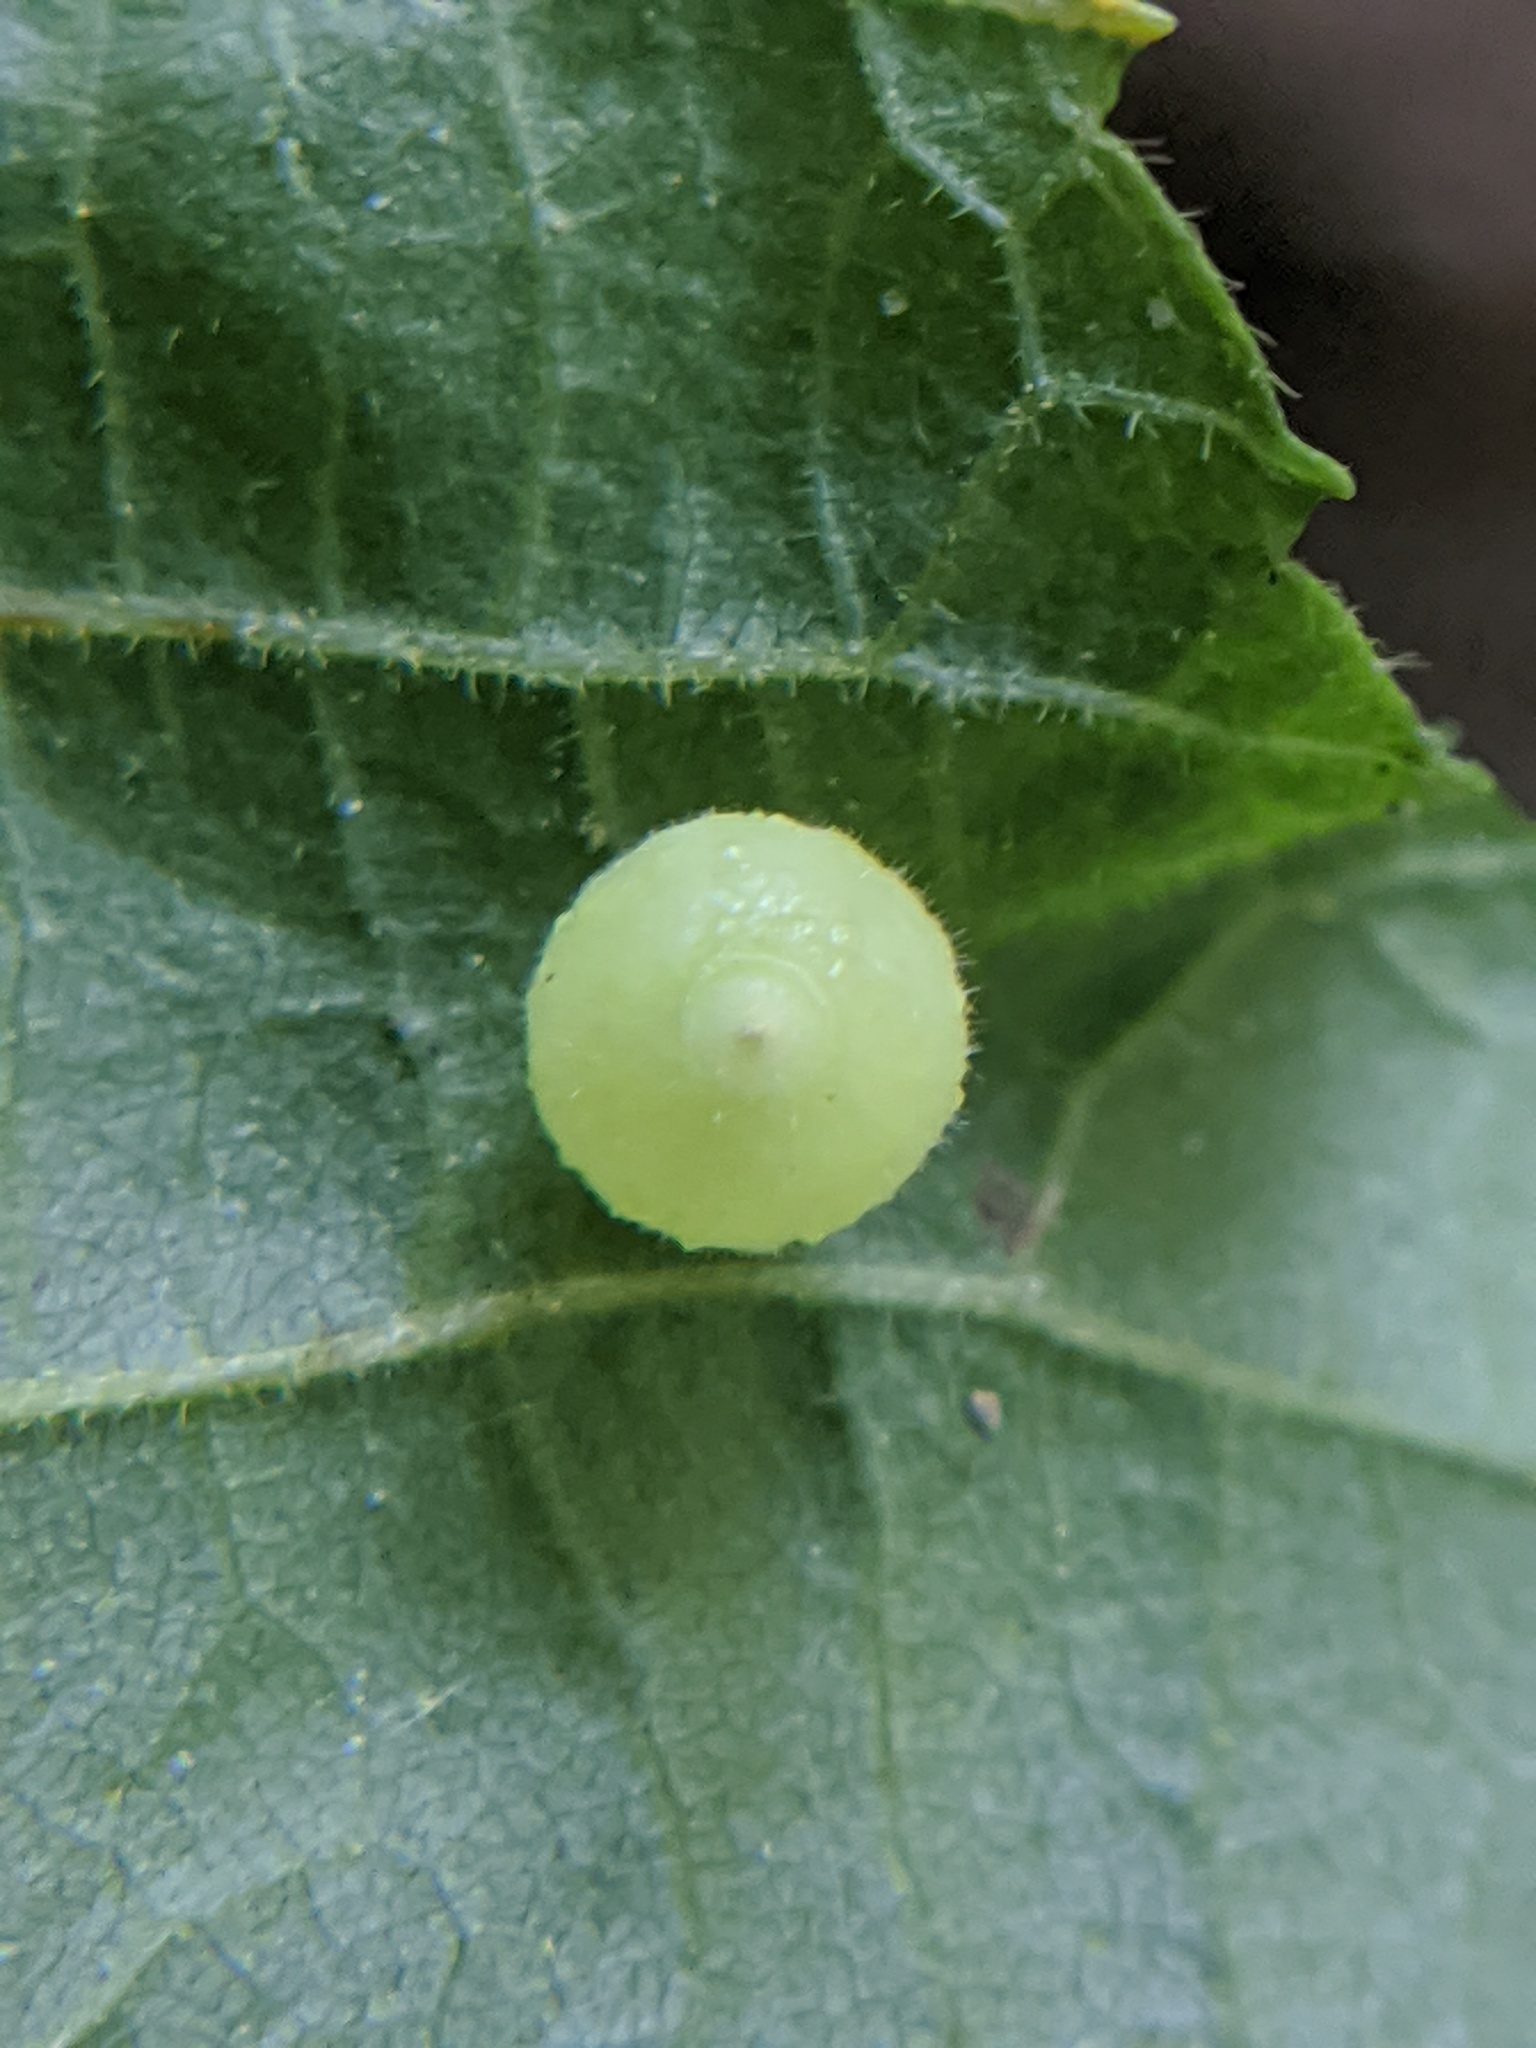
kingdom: Animalia
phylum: Arthropoda
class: Insecta
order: Diptera
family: Cecidomyiidae
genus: Caryomyia
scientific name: Caryomyia cilidolium
